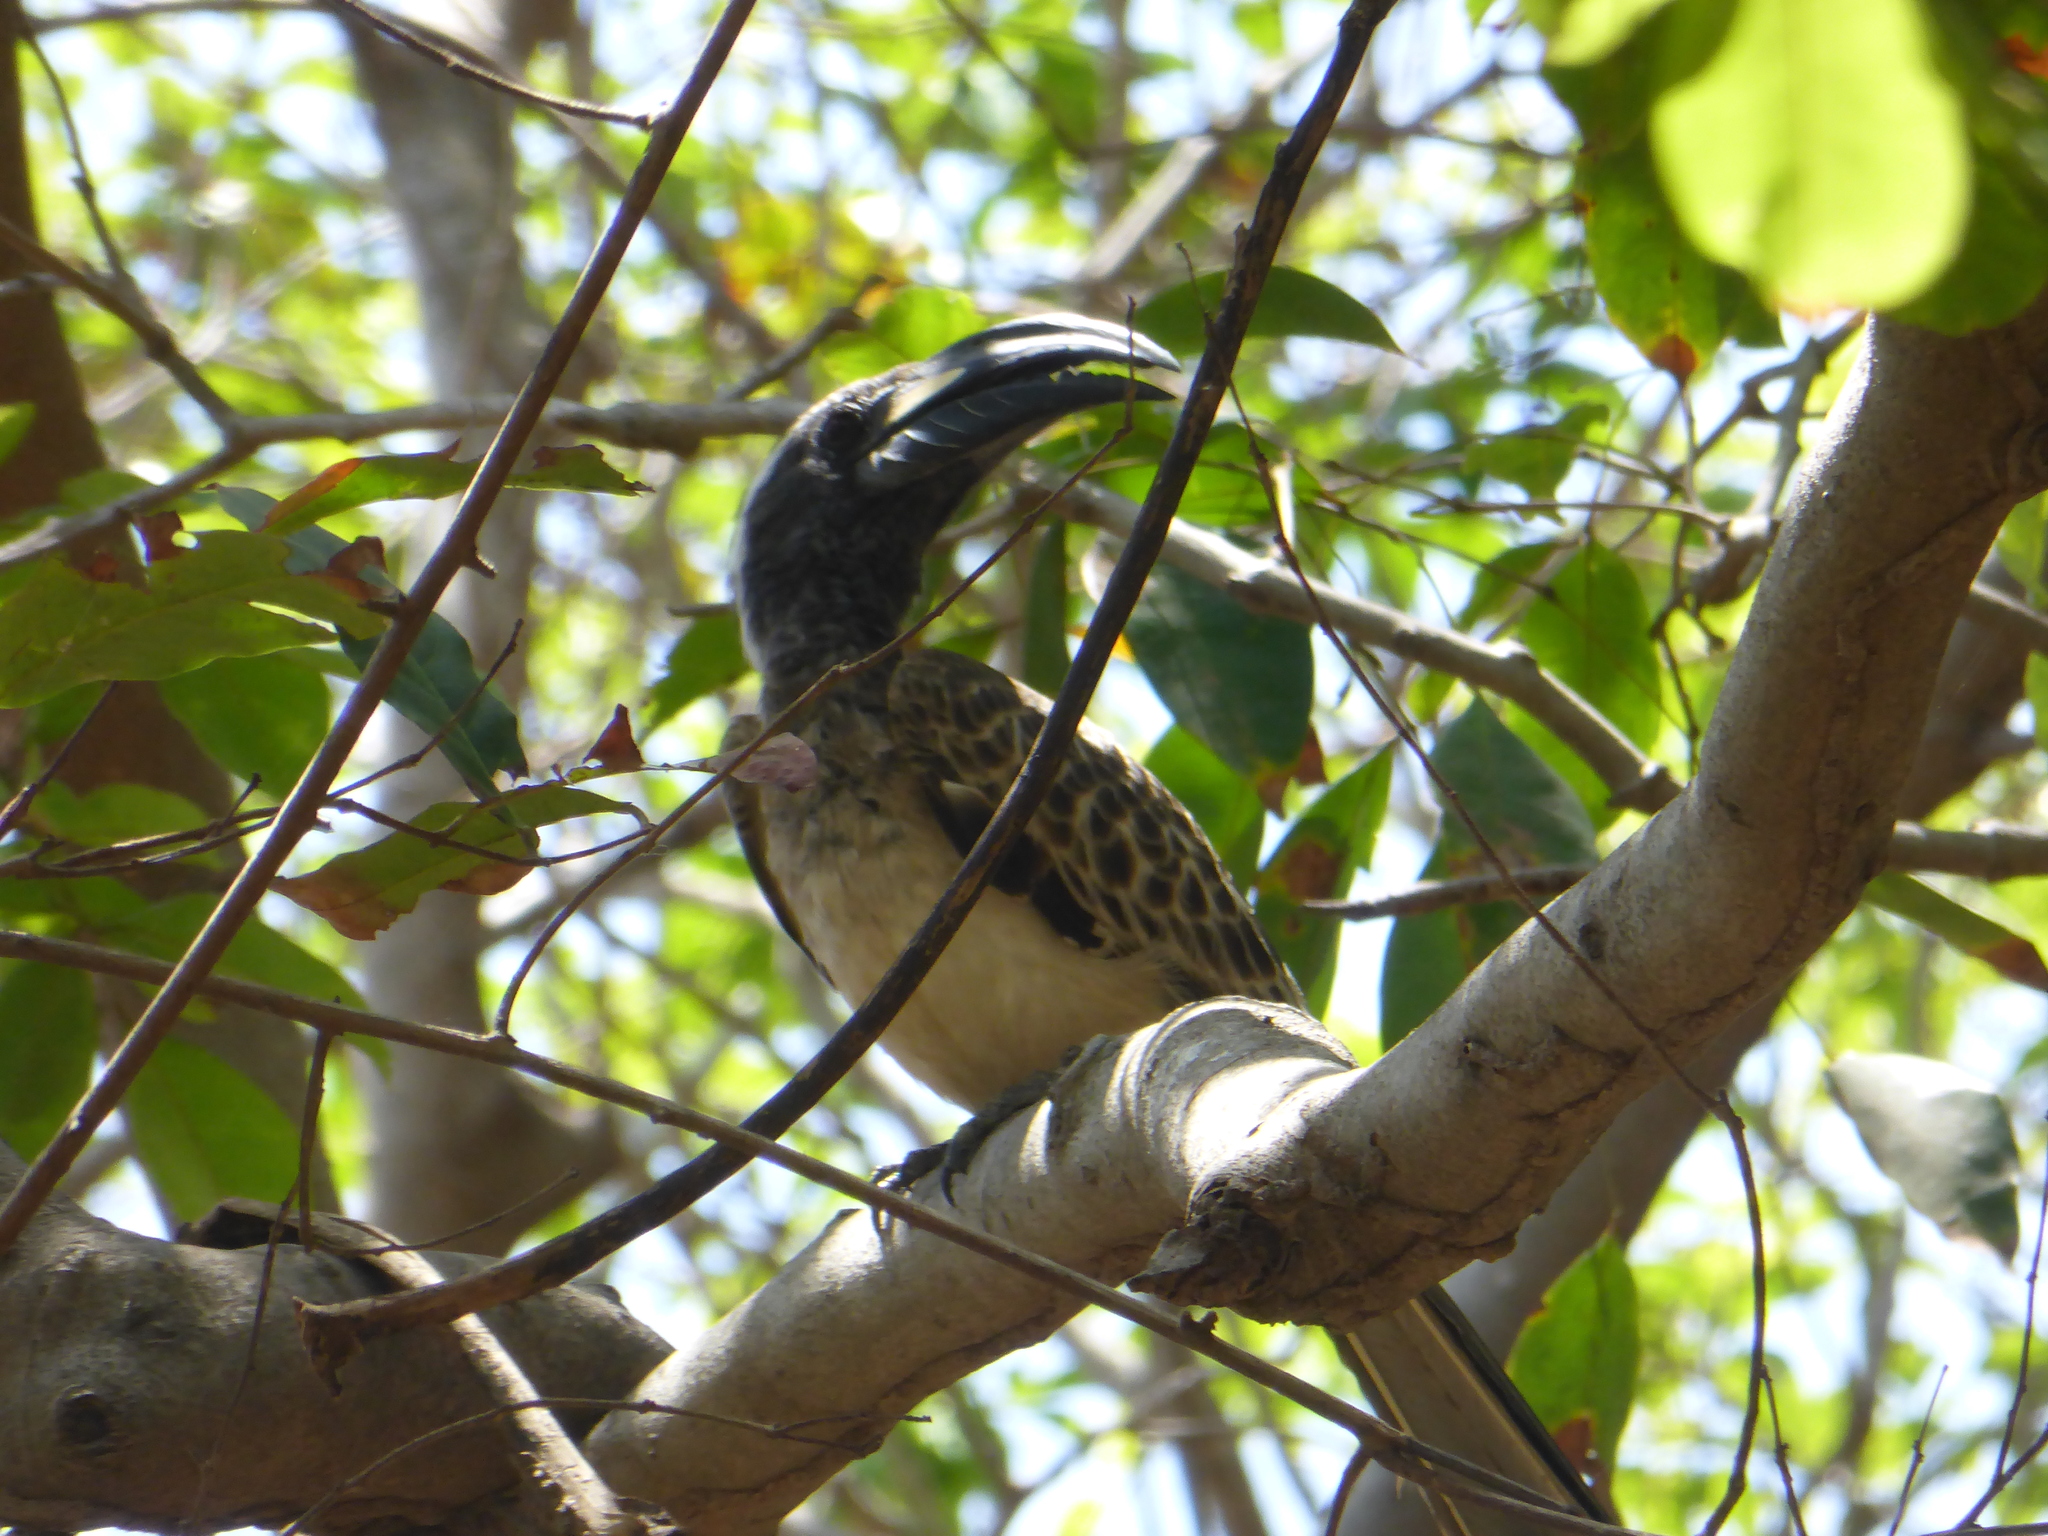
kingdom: Animalia
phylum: Chordata
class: Aves
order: Bucerotiformes
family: Bucerotidae
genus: Lophoceros
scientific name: Lophoceros nasutus
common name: African grey hornbill
